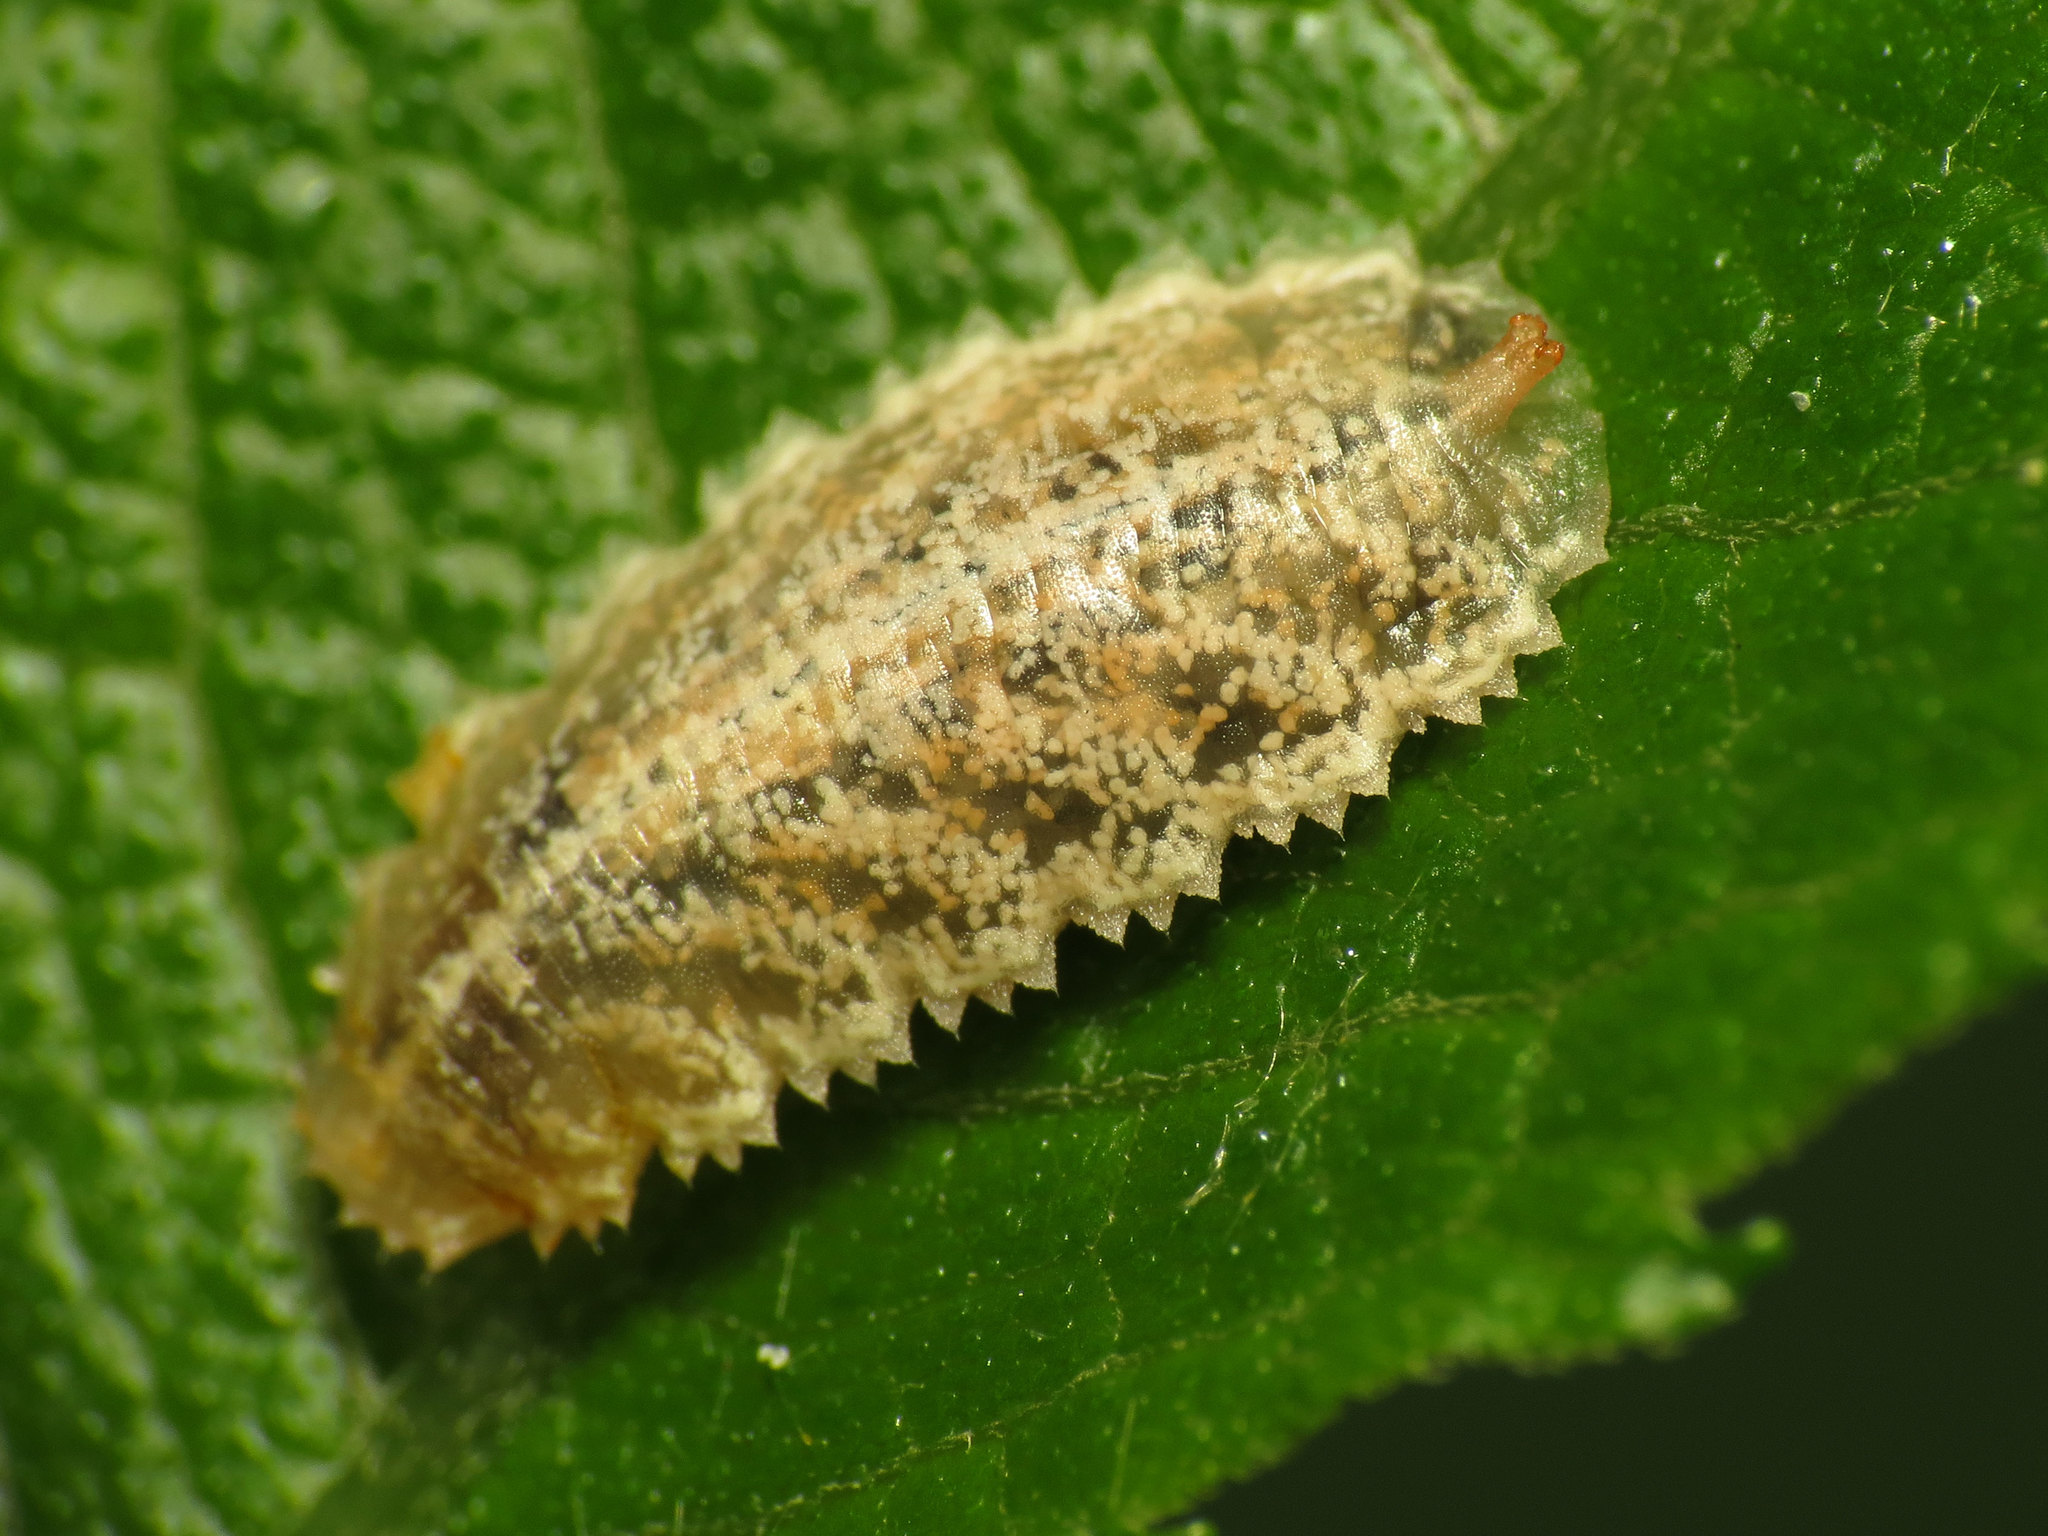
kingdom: Animalia
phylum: Arthropoda
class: Insecta
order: Diptera
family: Syrphidae
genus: Epistrophella
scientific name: Epistrophella emarginata
